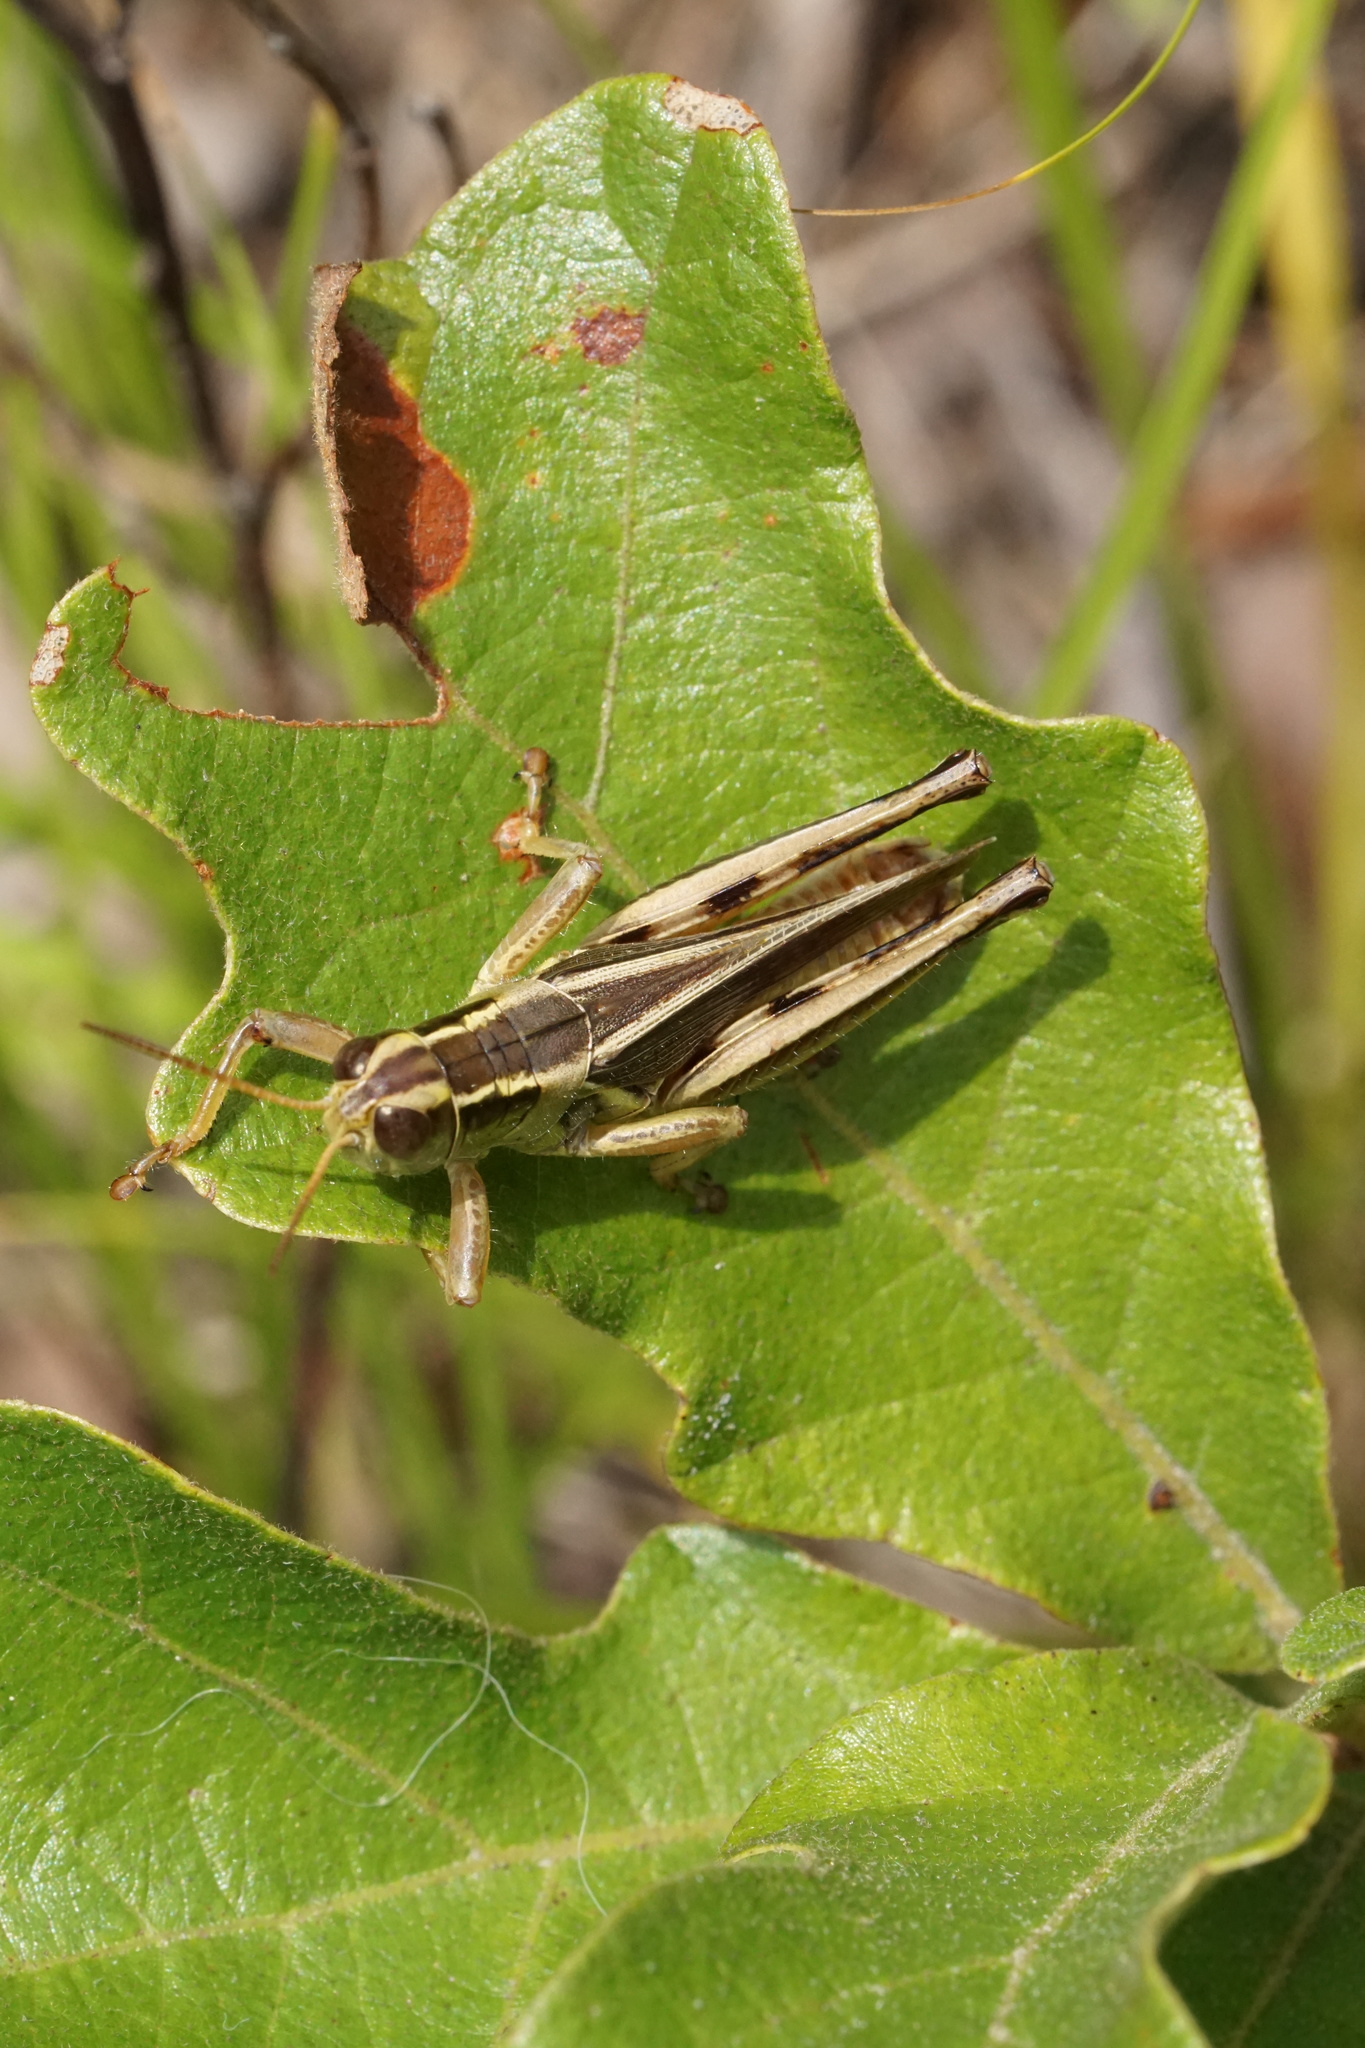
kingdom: Animalia
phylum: Arthropoda
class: Insecta
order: Orthoptera
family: Acrididae
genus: Melanoplus
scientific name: Melanoplus bivittatus
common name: Two-striped grasshopper
